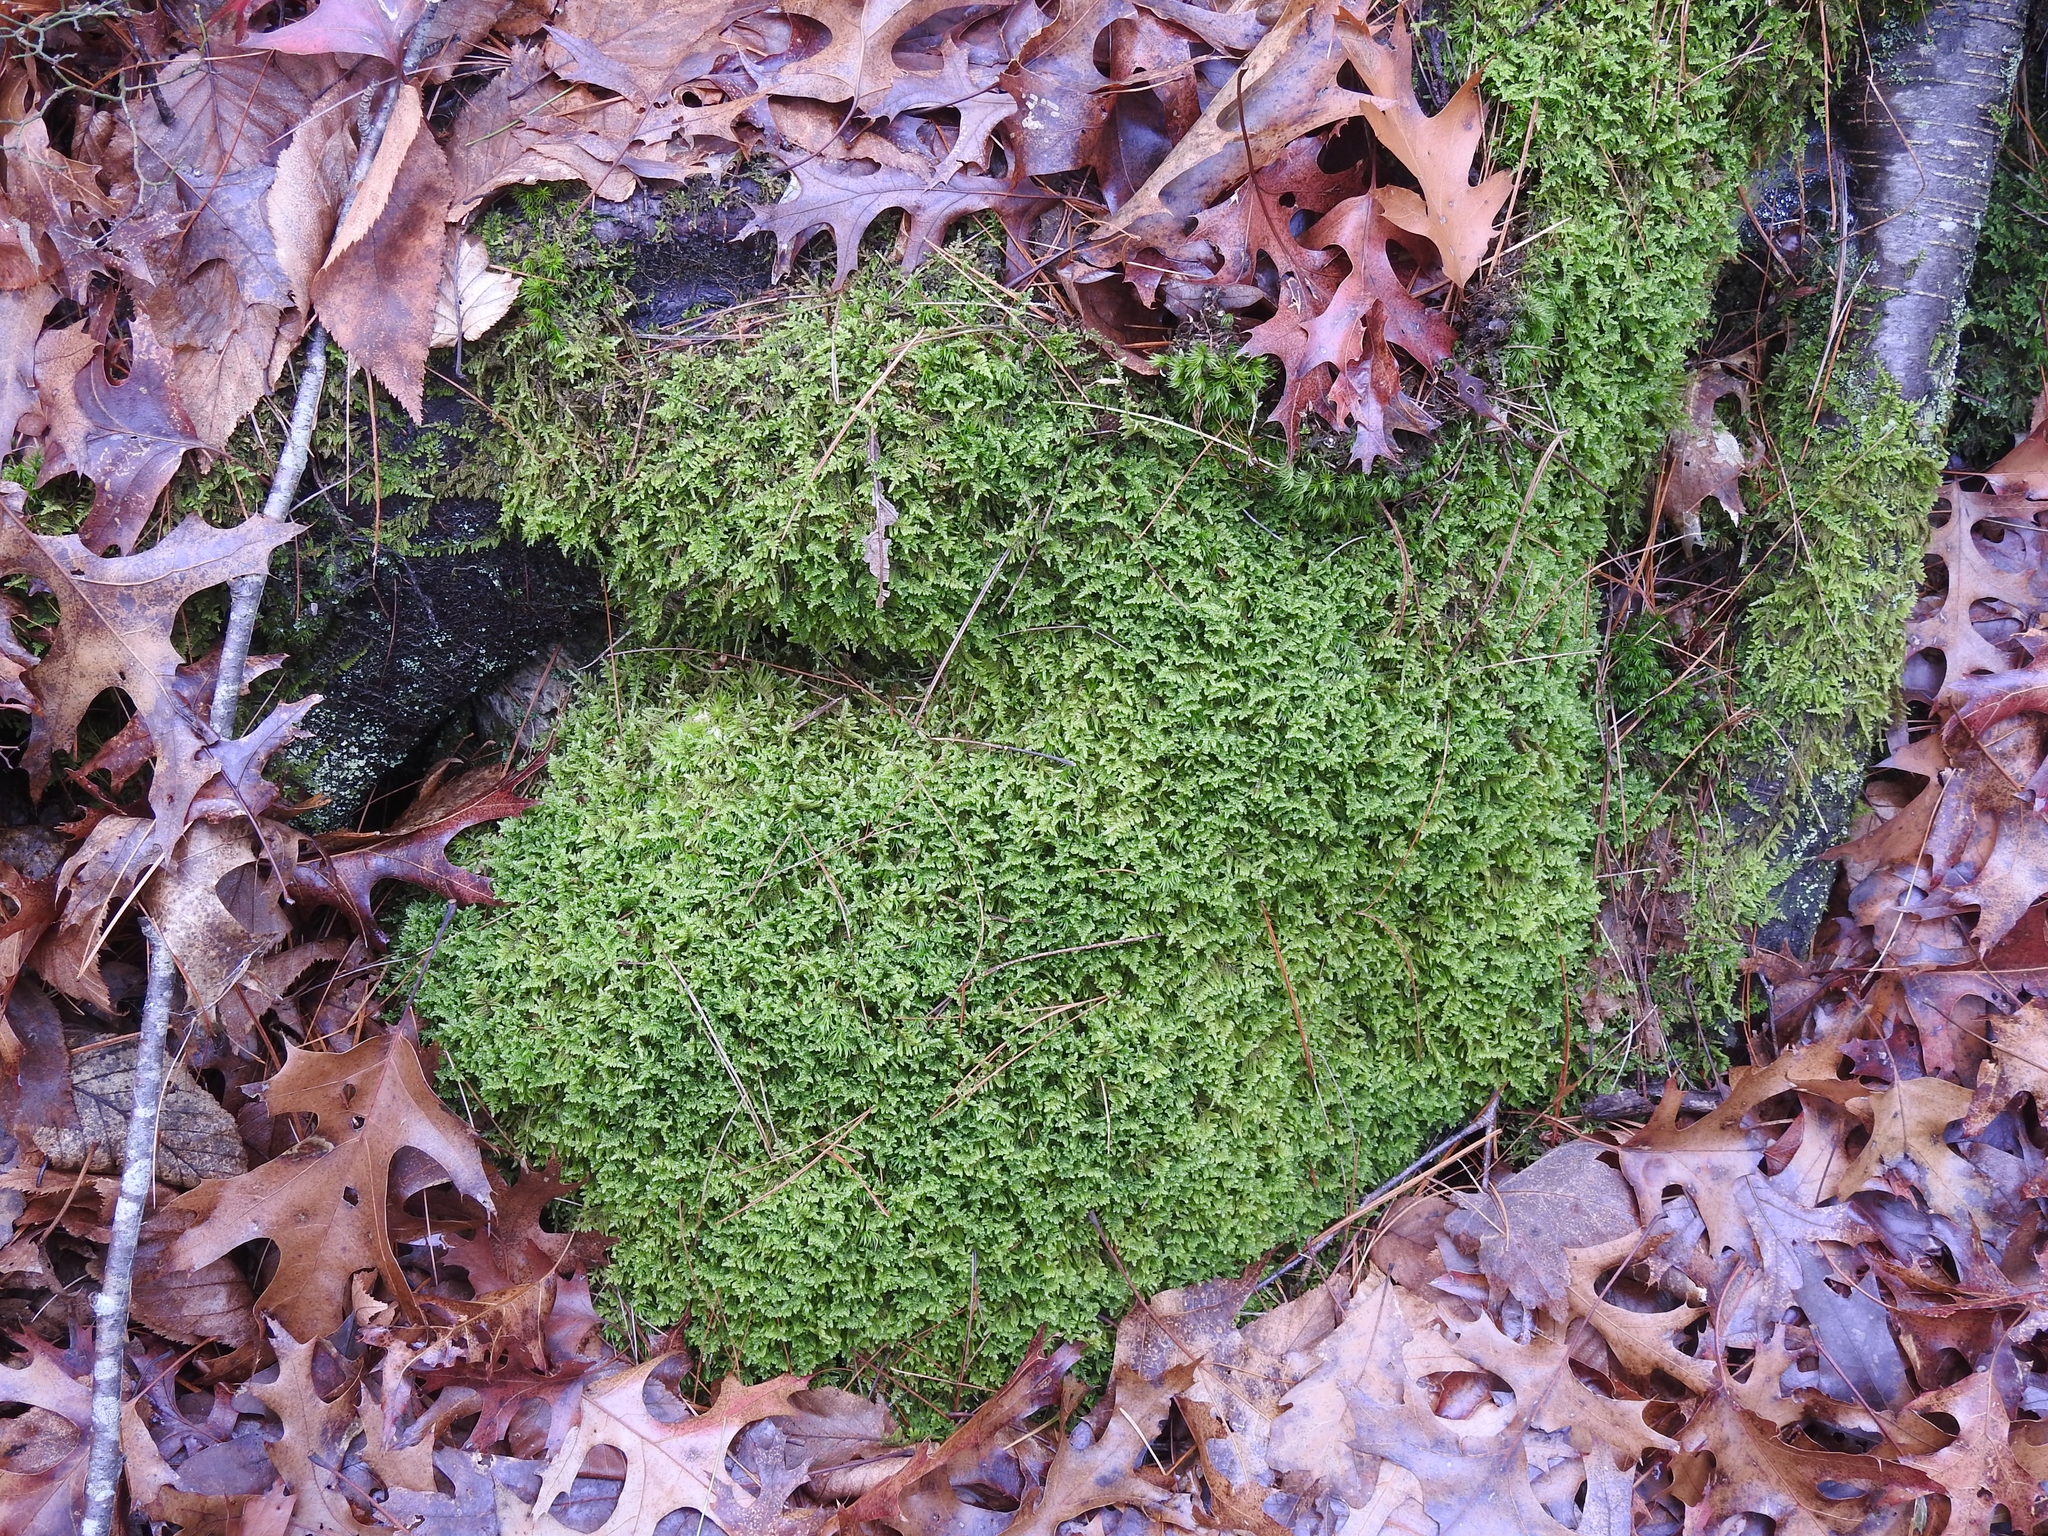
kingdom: Plantae
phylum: Bryophyta
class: Bryopsida
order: Hypnales
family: Callicladiaceae
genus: Callicladium
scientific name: Callicladium imponens
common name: Brocade moss
